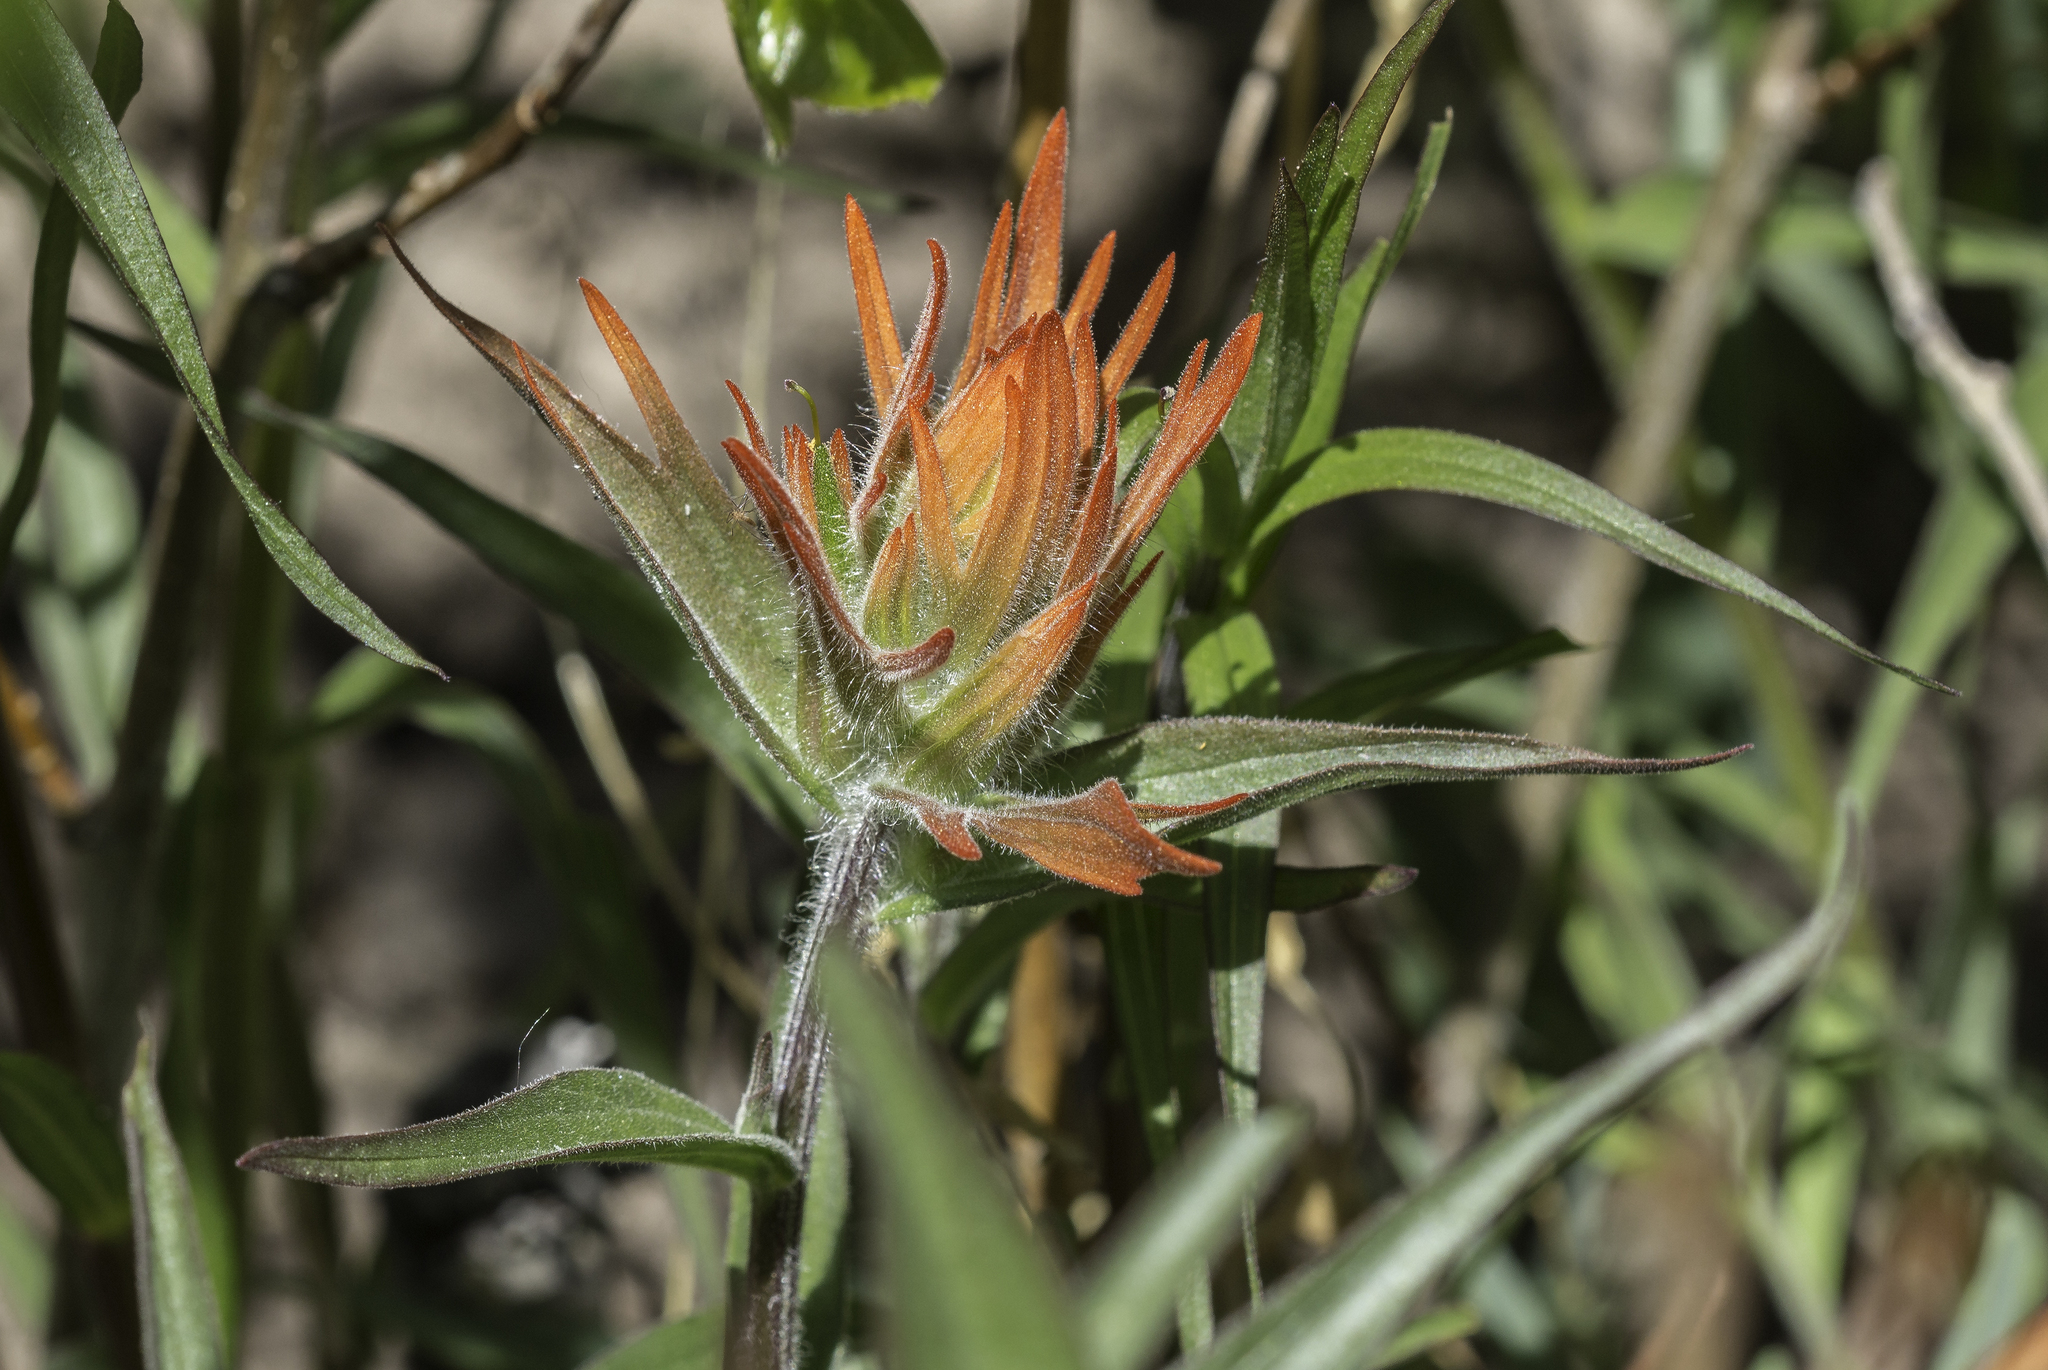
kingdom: Plantae
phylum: Tracheophyta
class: Magnoliopsida
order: Lamiales
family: Orobanchaceae
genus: Castilleja
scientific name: Castilleja miniata
